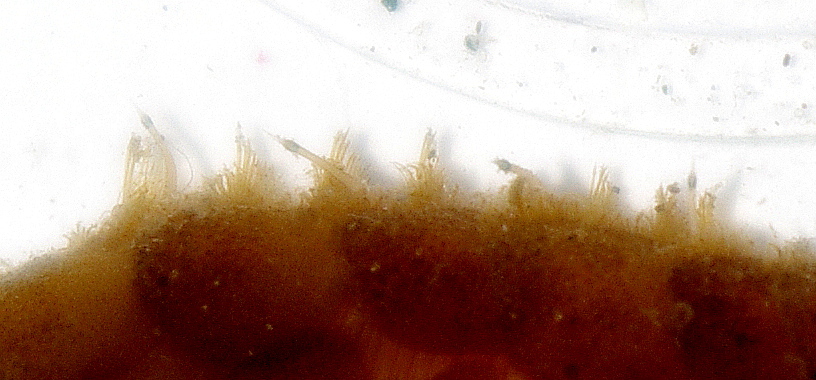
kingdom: Animalia
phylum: Annelida
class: Polychaeta
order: Phyllodocida
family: Polynoidae
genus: Lepidonotus
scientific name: Lepidonotus squamatus
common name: Twelve-scaled worm
